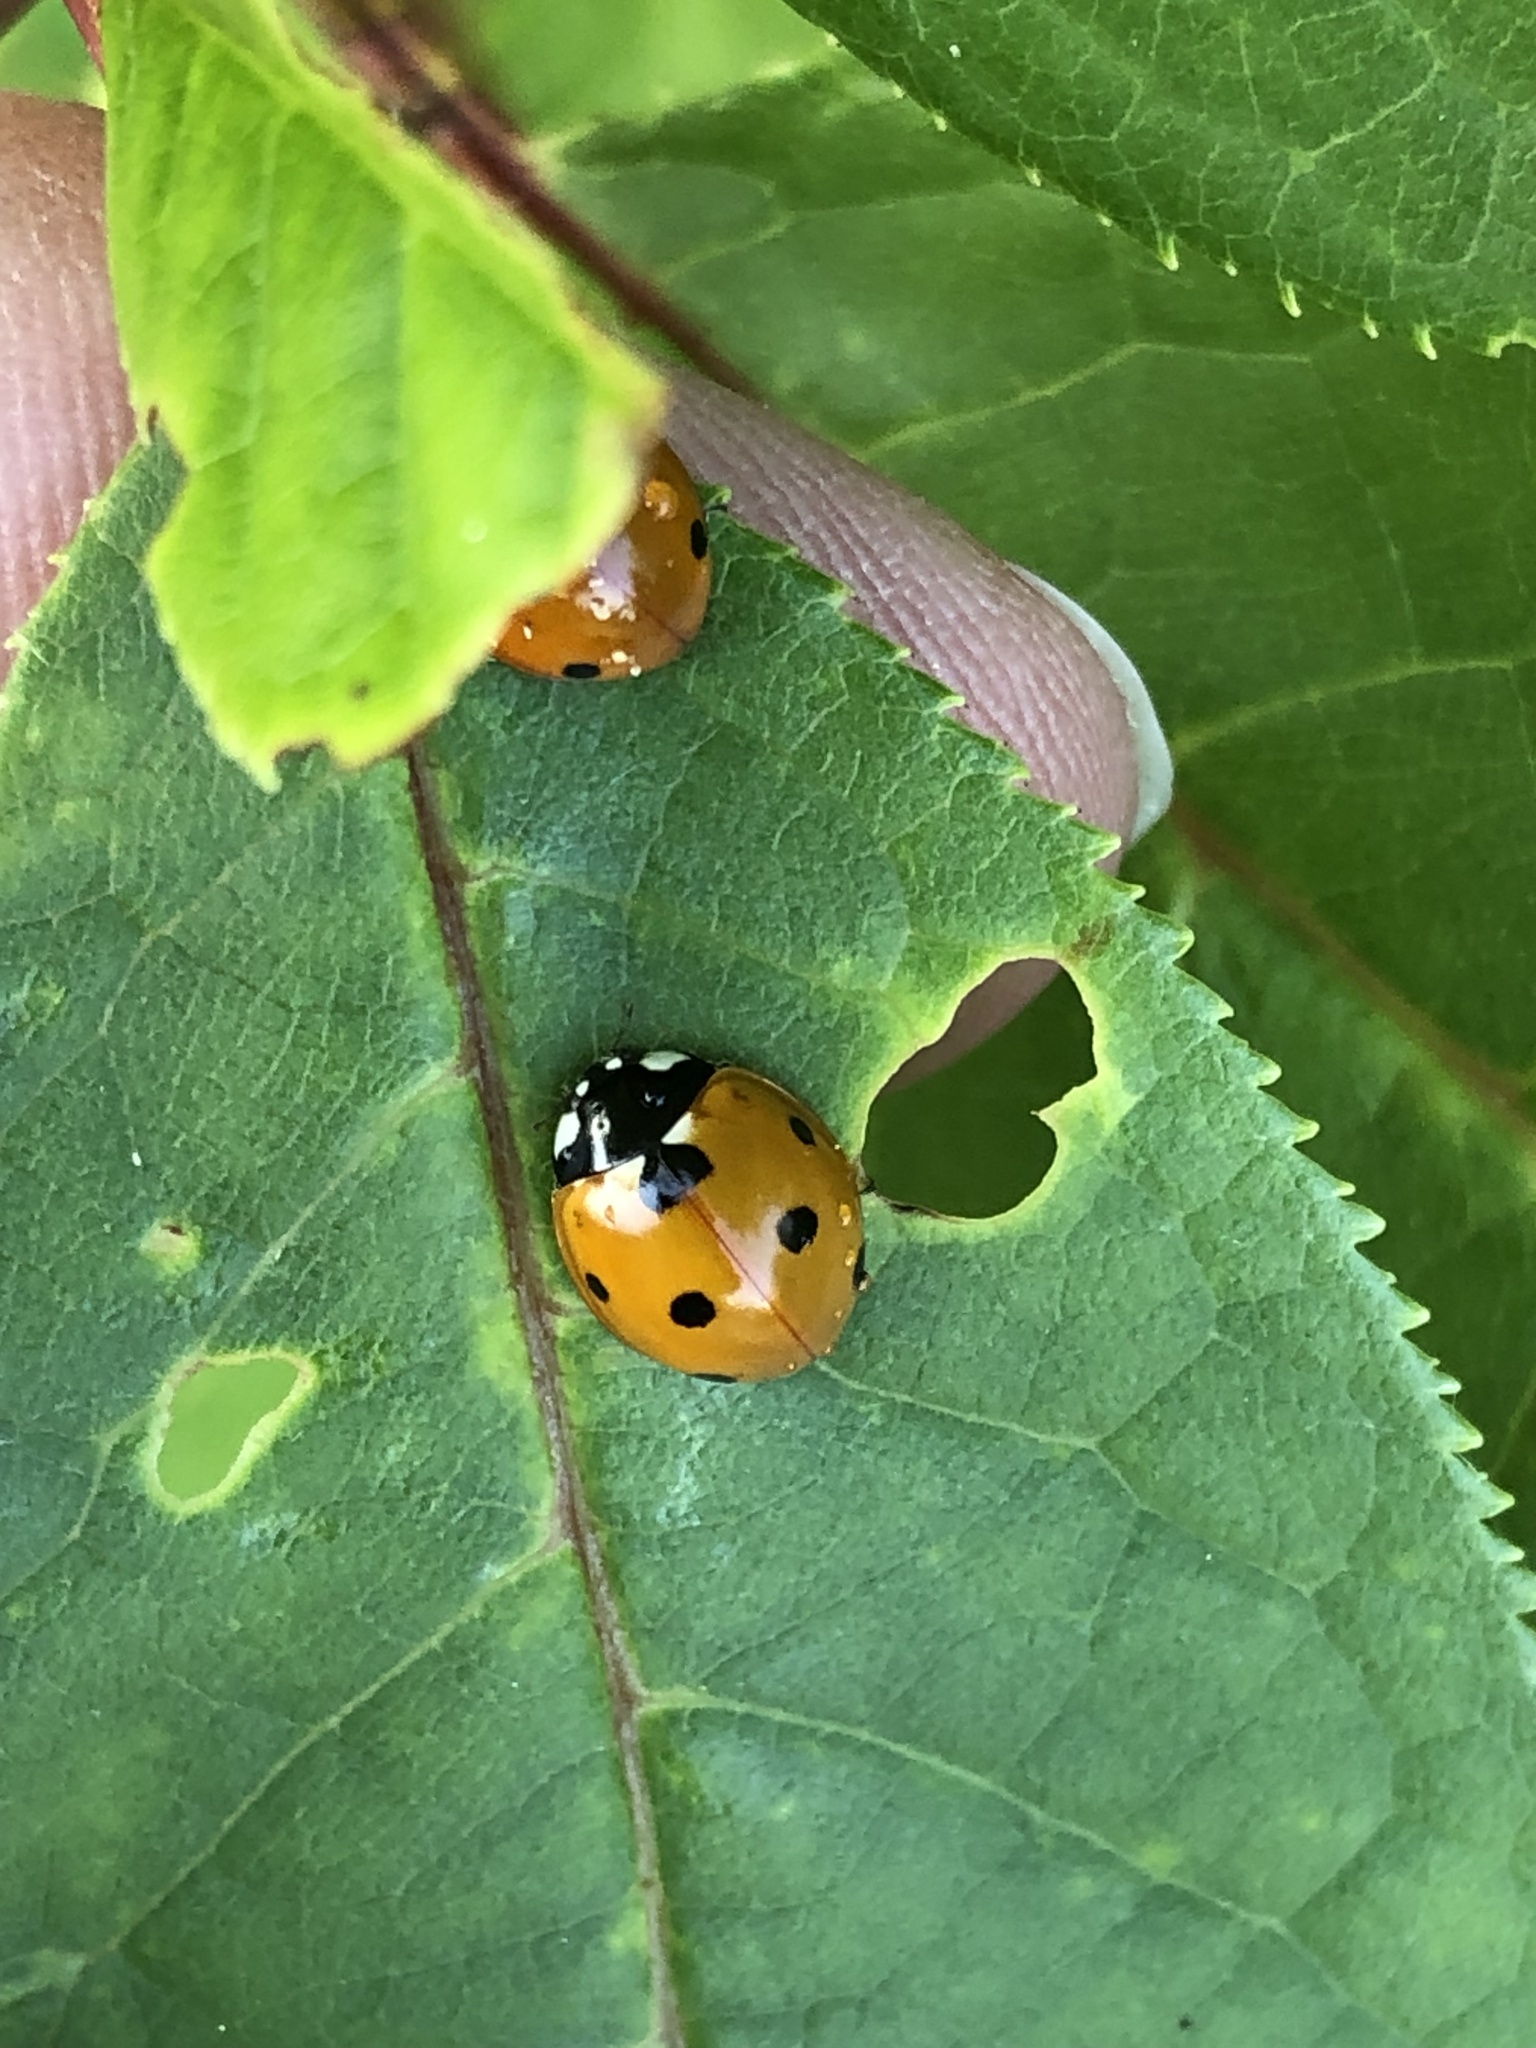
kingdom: Animalia
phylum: Arthropoda
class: Insecta
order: Coleoptera
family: Coccinellidae
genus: Coccinella
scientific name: Coccinella septempunctata
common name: Sevenspotted lady beetle
